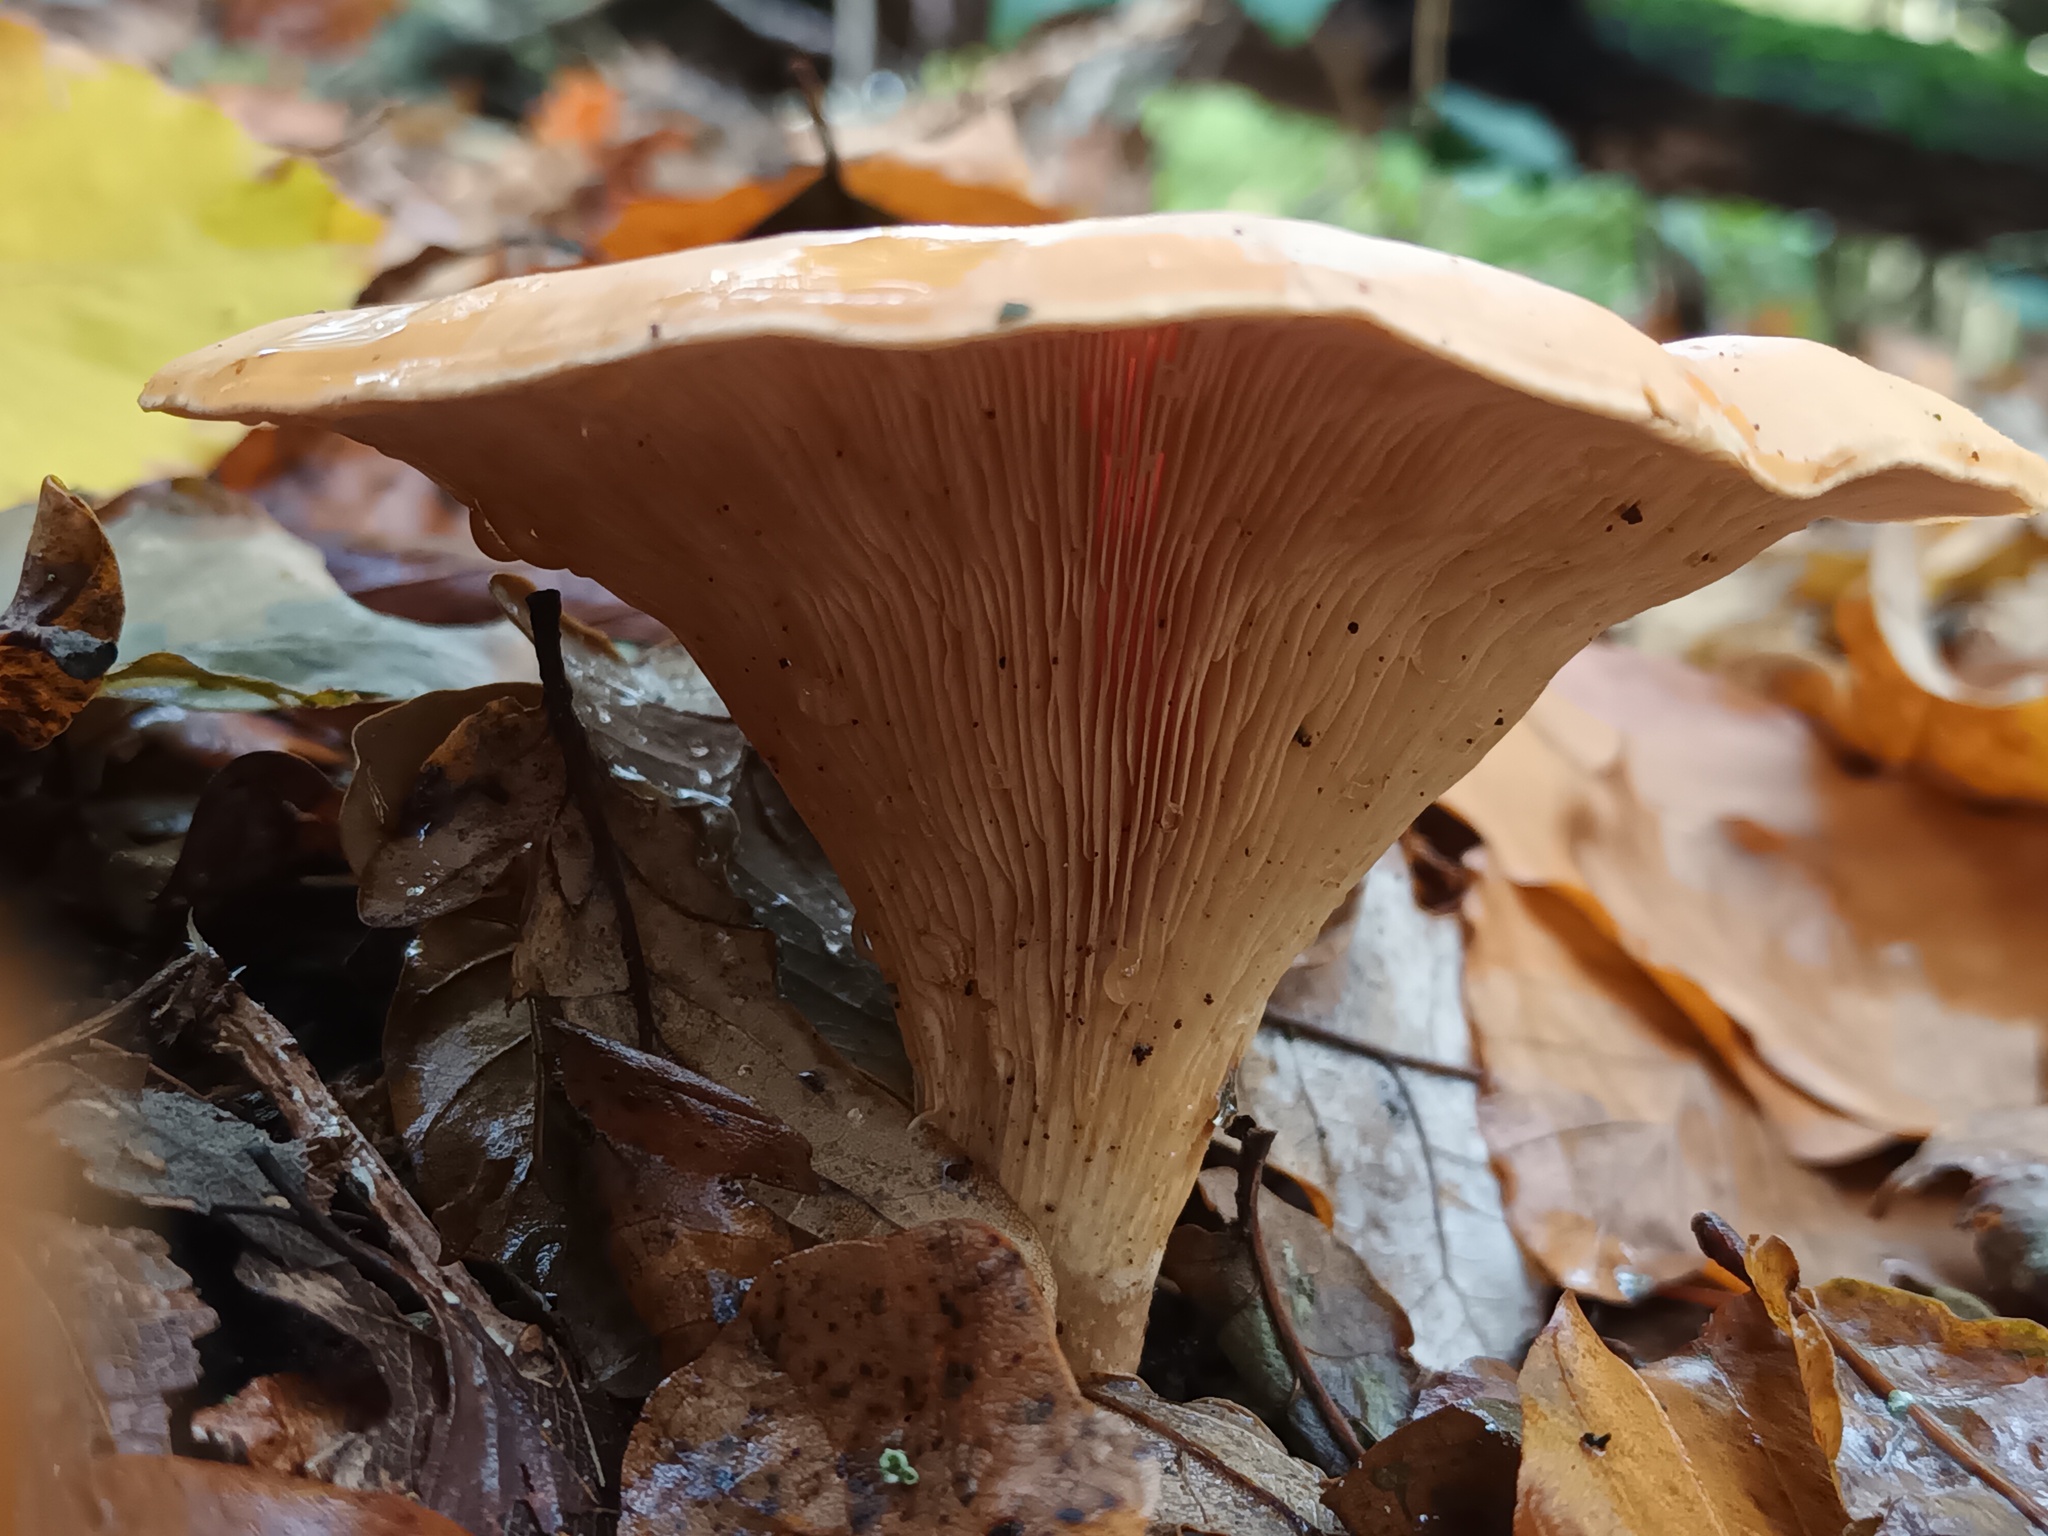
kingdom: Fungi
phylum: Basidiomycota
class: Agaricomycetes
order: Agaricales
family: Tricholomataceae
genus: Paralepista
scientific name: Paralepista flaccida
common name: Tawny funnel cap
